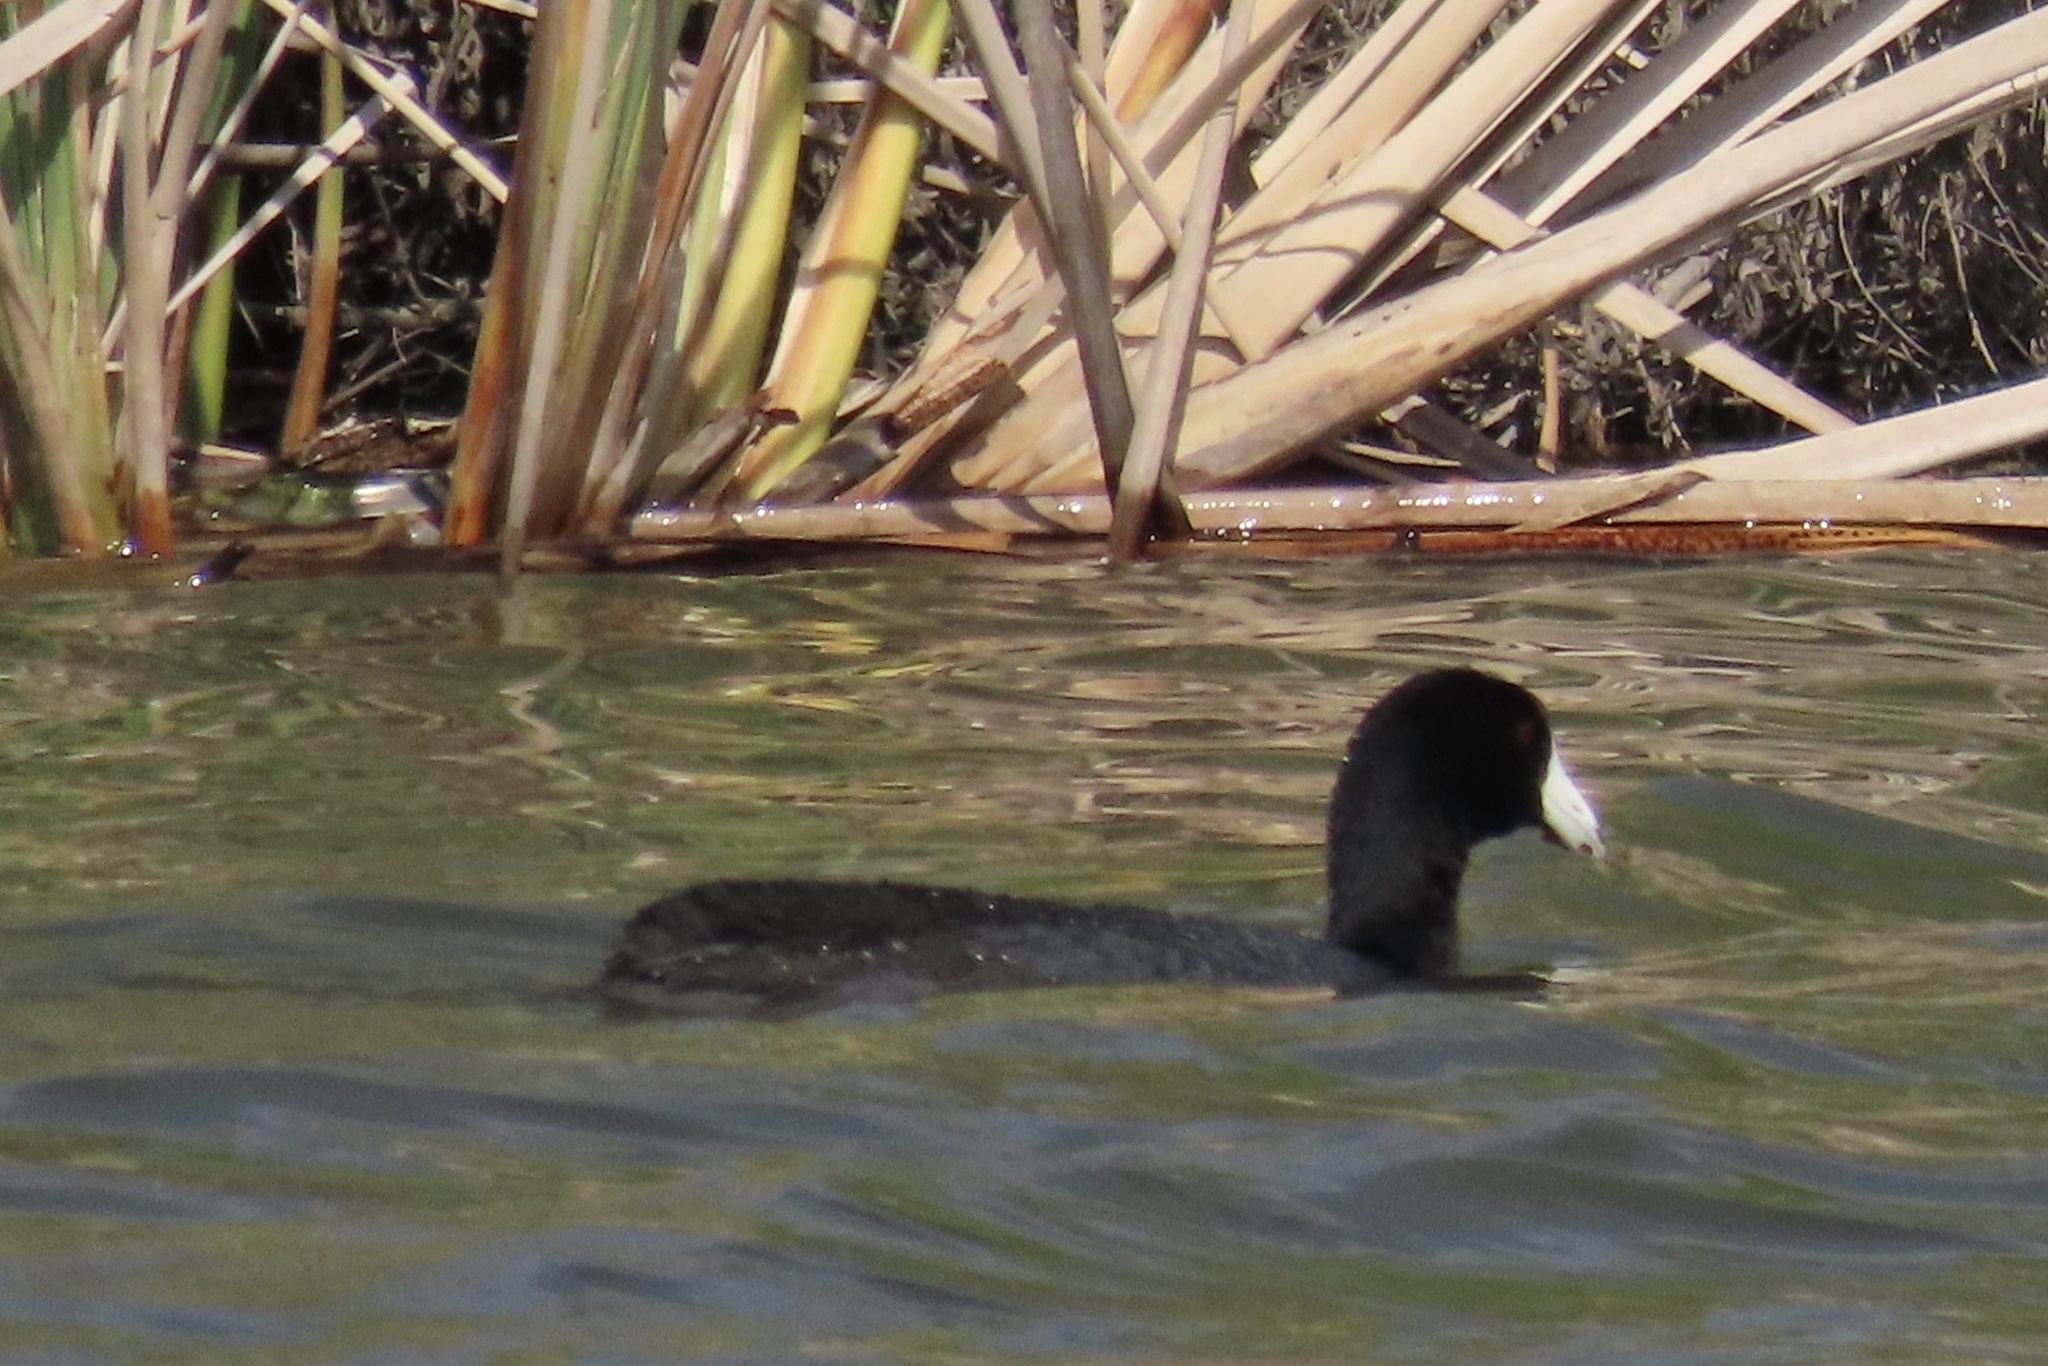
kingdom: Animalia
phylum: Chordata
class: Aves
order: Gruiformes
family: Rallidae
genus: Fulica
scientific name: Fulica americana
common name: American coot
